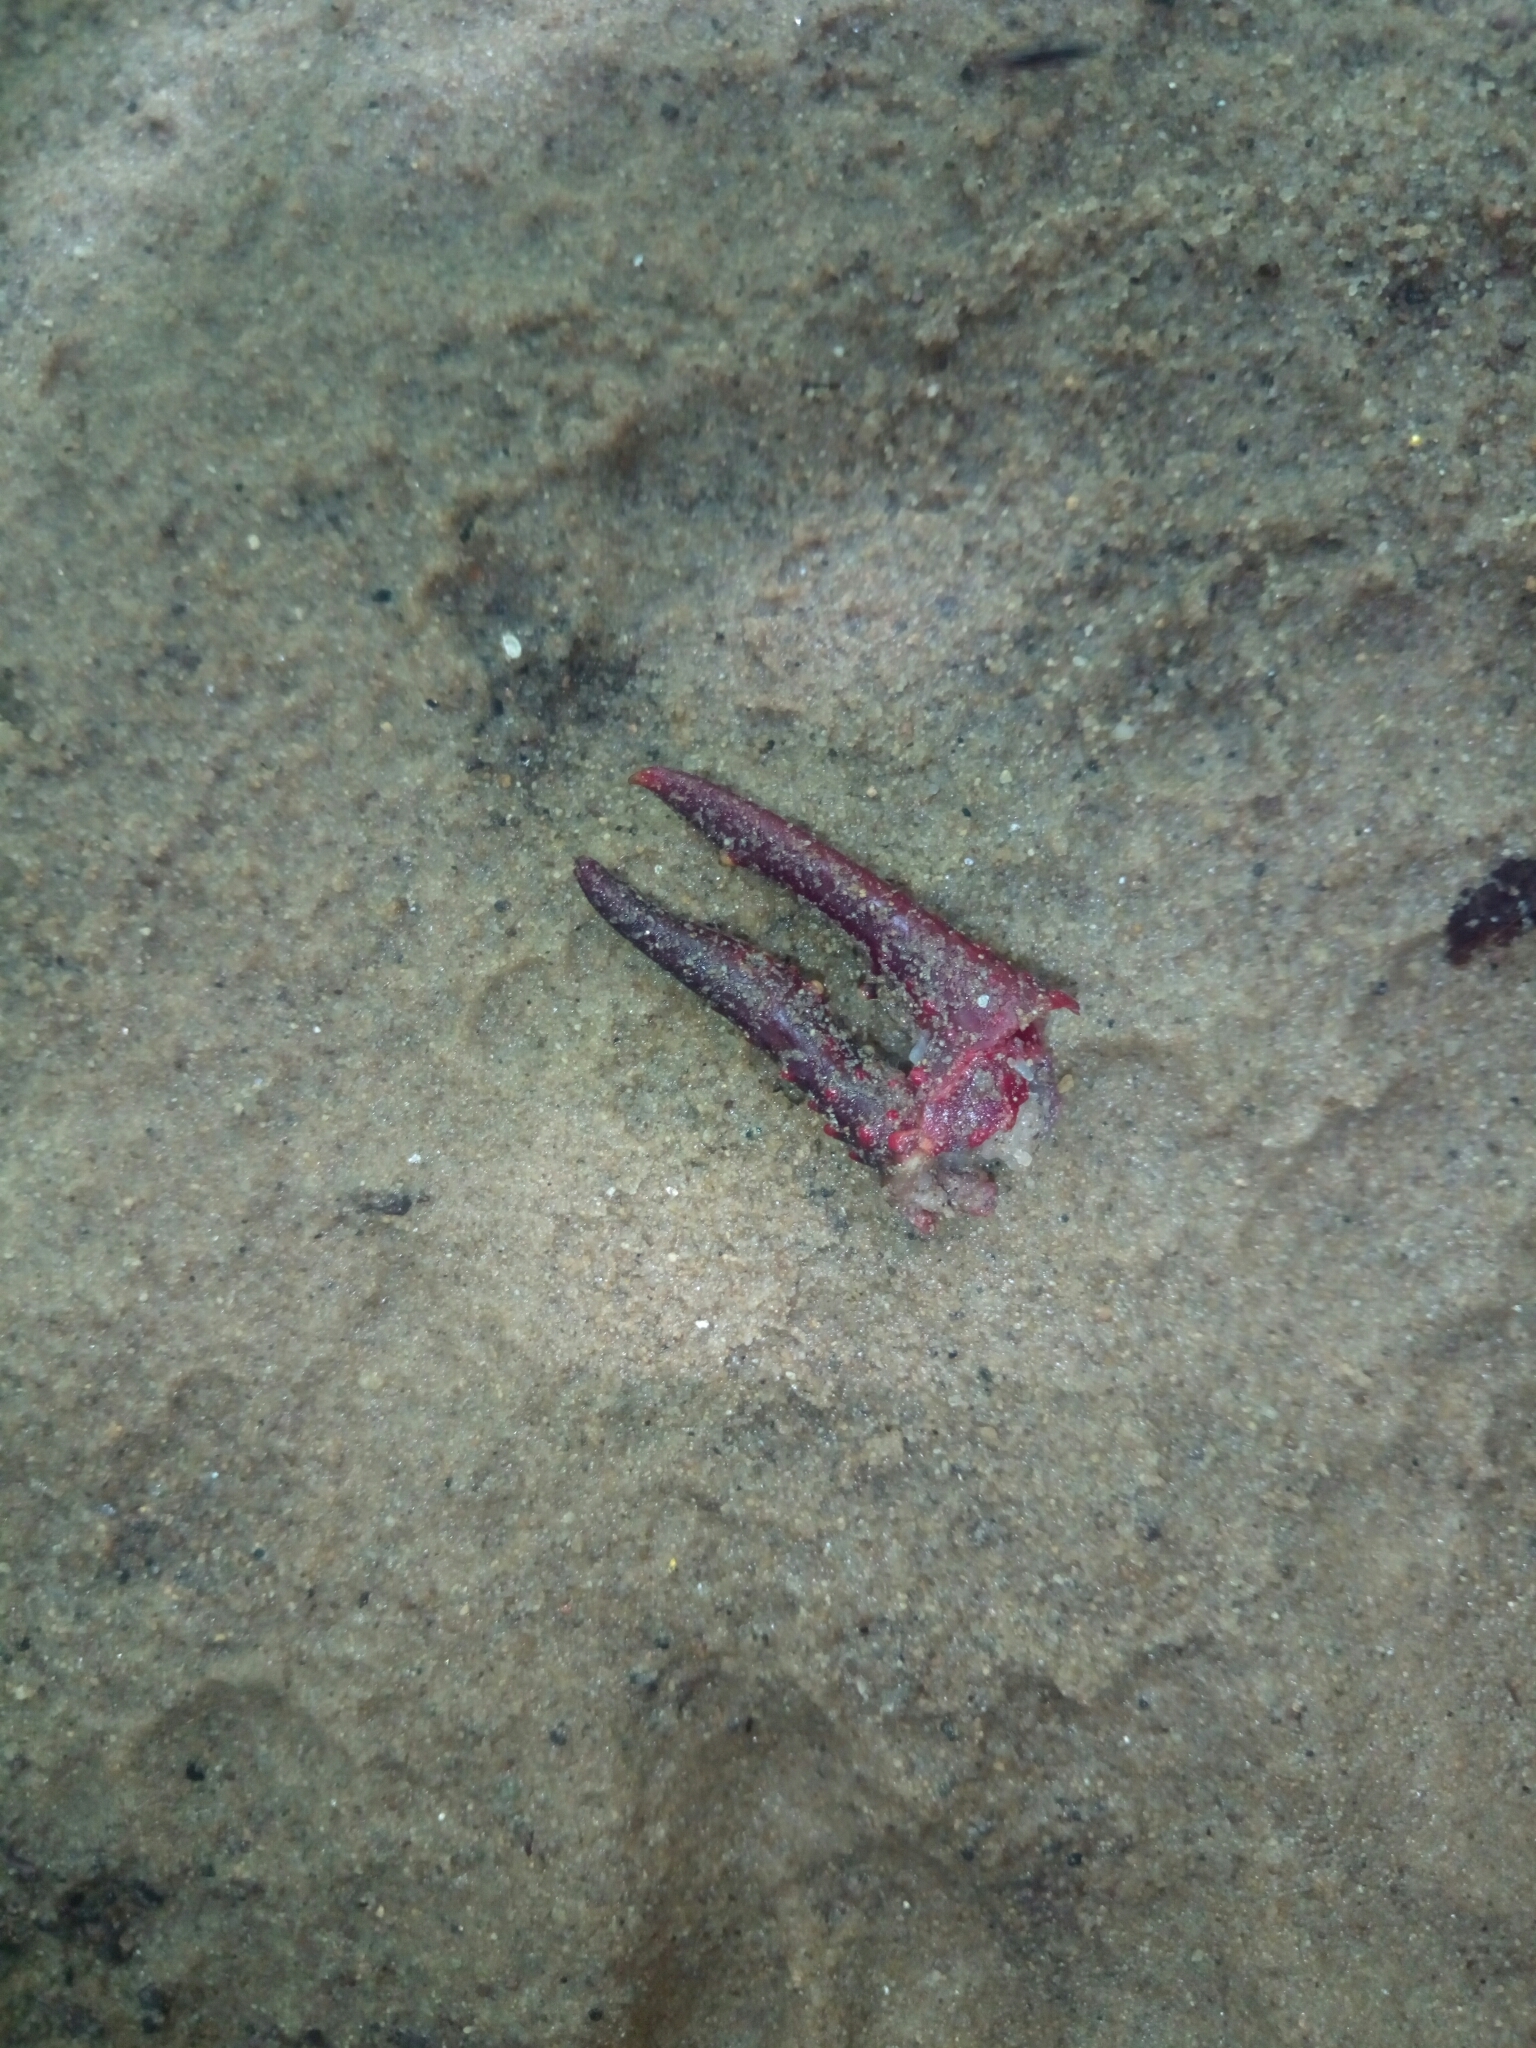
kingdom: Animalia
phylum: Arthropoda
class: Malacostraca
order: Decapoda
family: Cambaridae
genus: Procambarus
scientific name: Procambarus clarkii
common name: Red swamp crayfish
